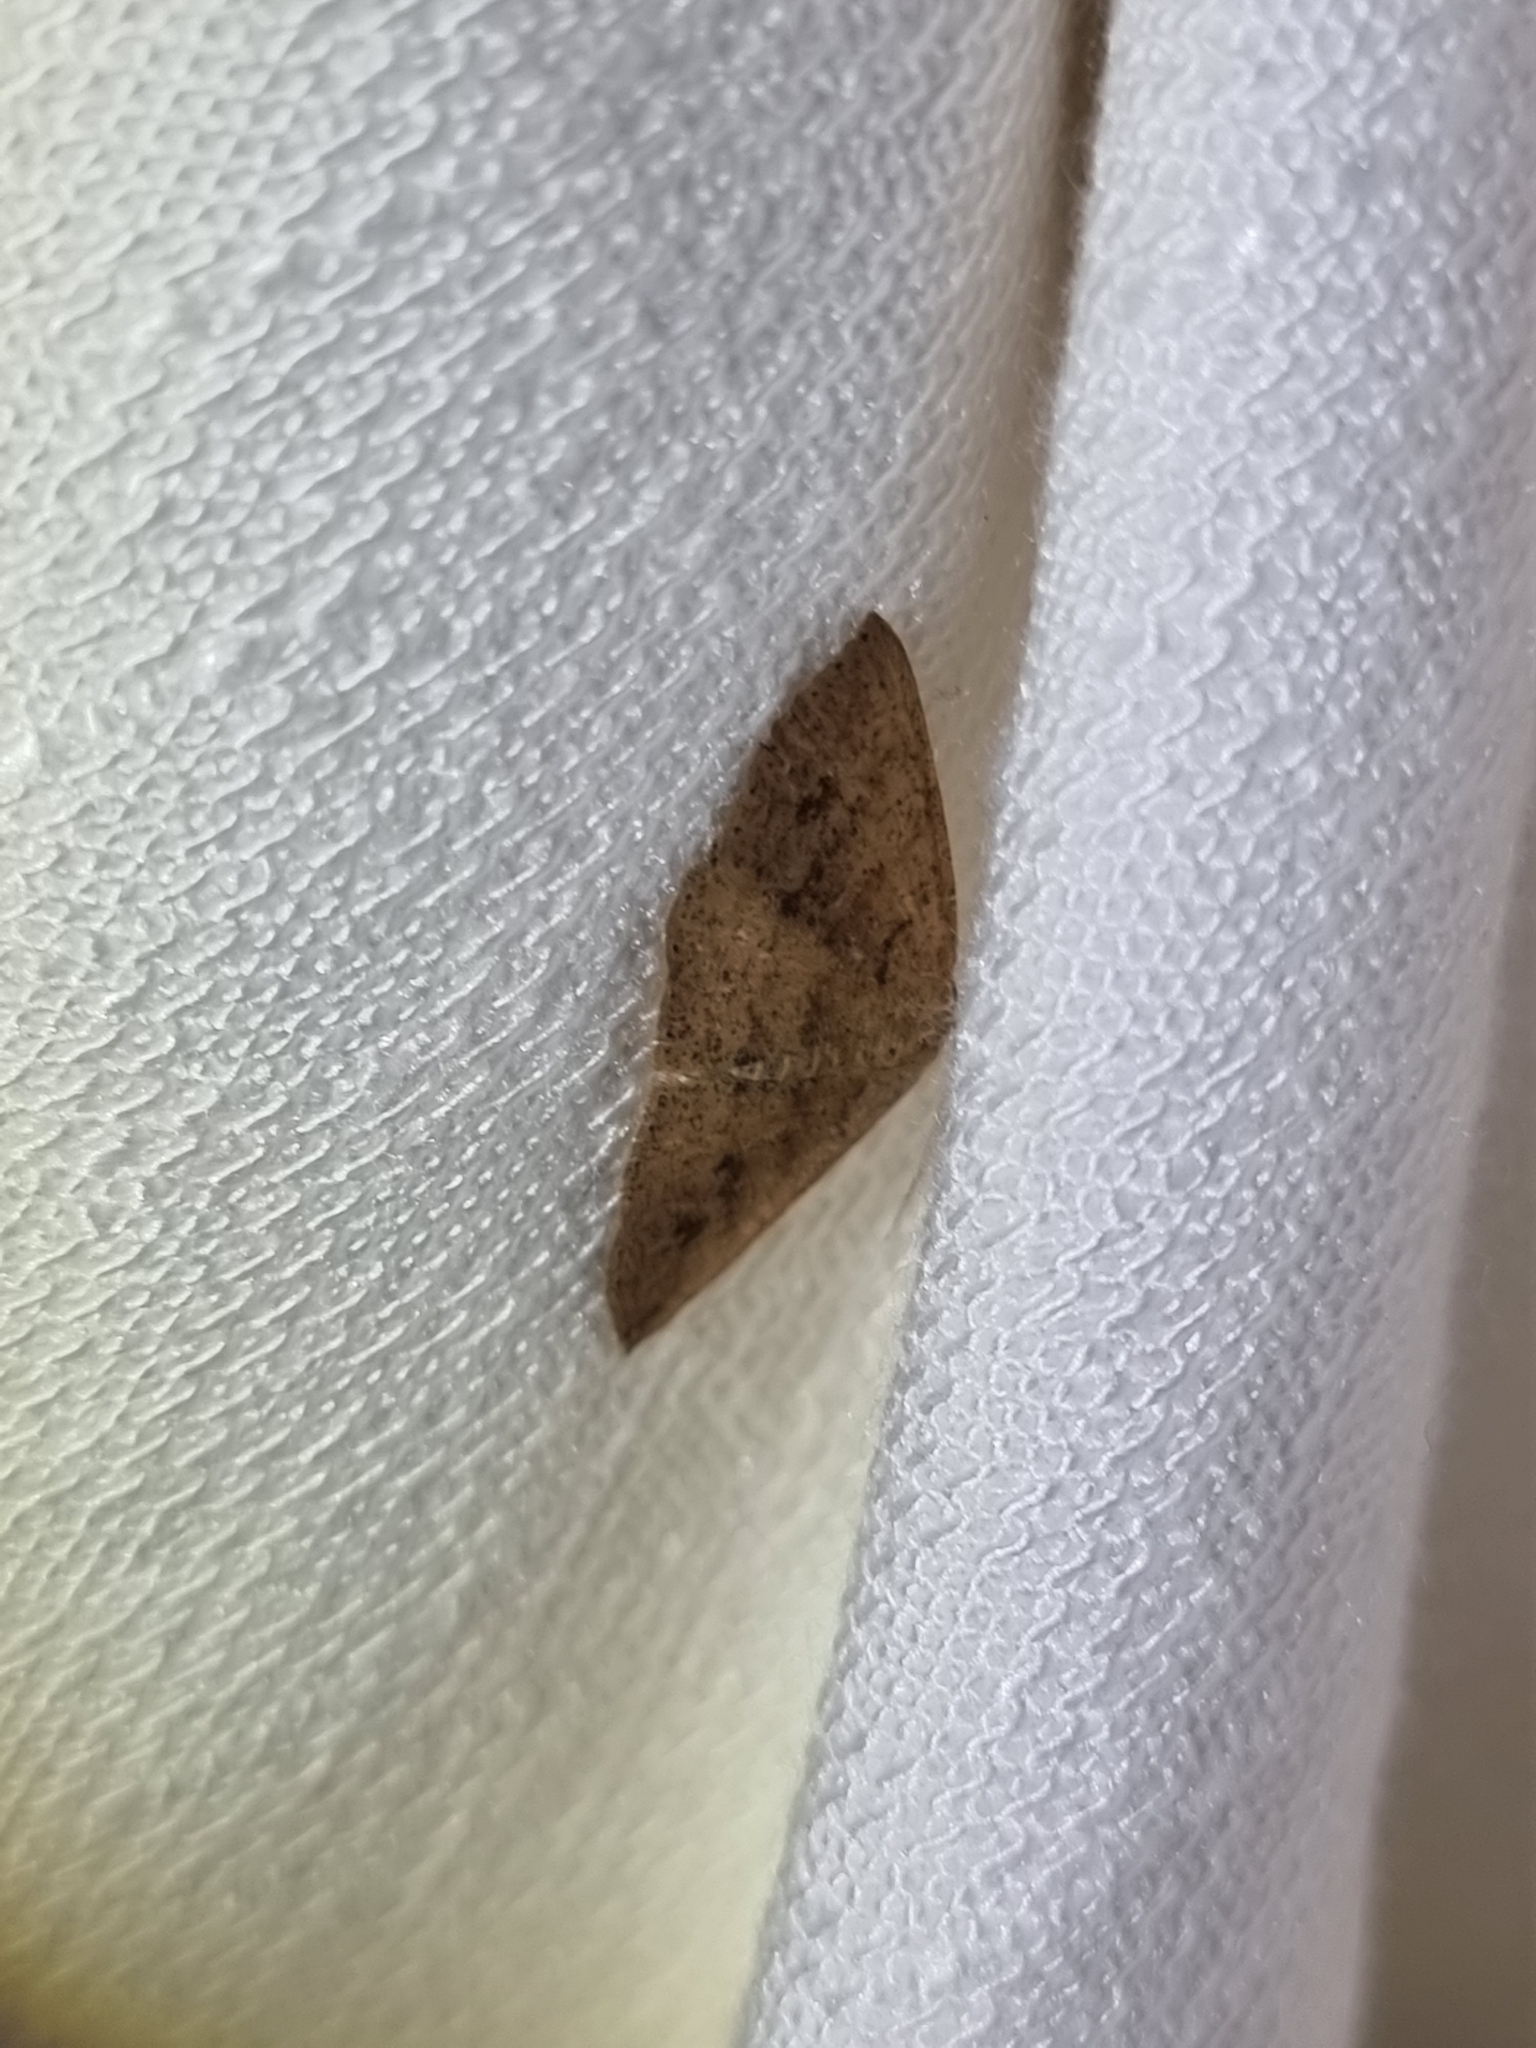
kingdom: Animalia
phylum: Arthropoda
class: Insecta
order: Lepidoptera
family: Geometridae
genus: Casbia
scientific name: Casbia rectaria
